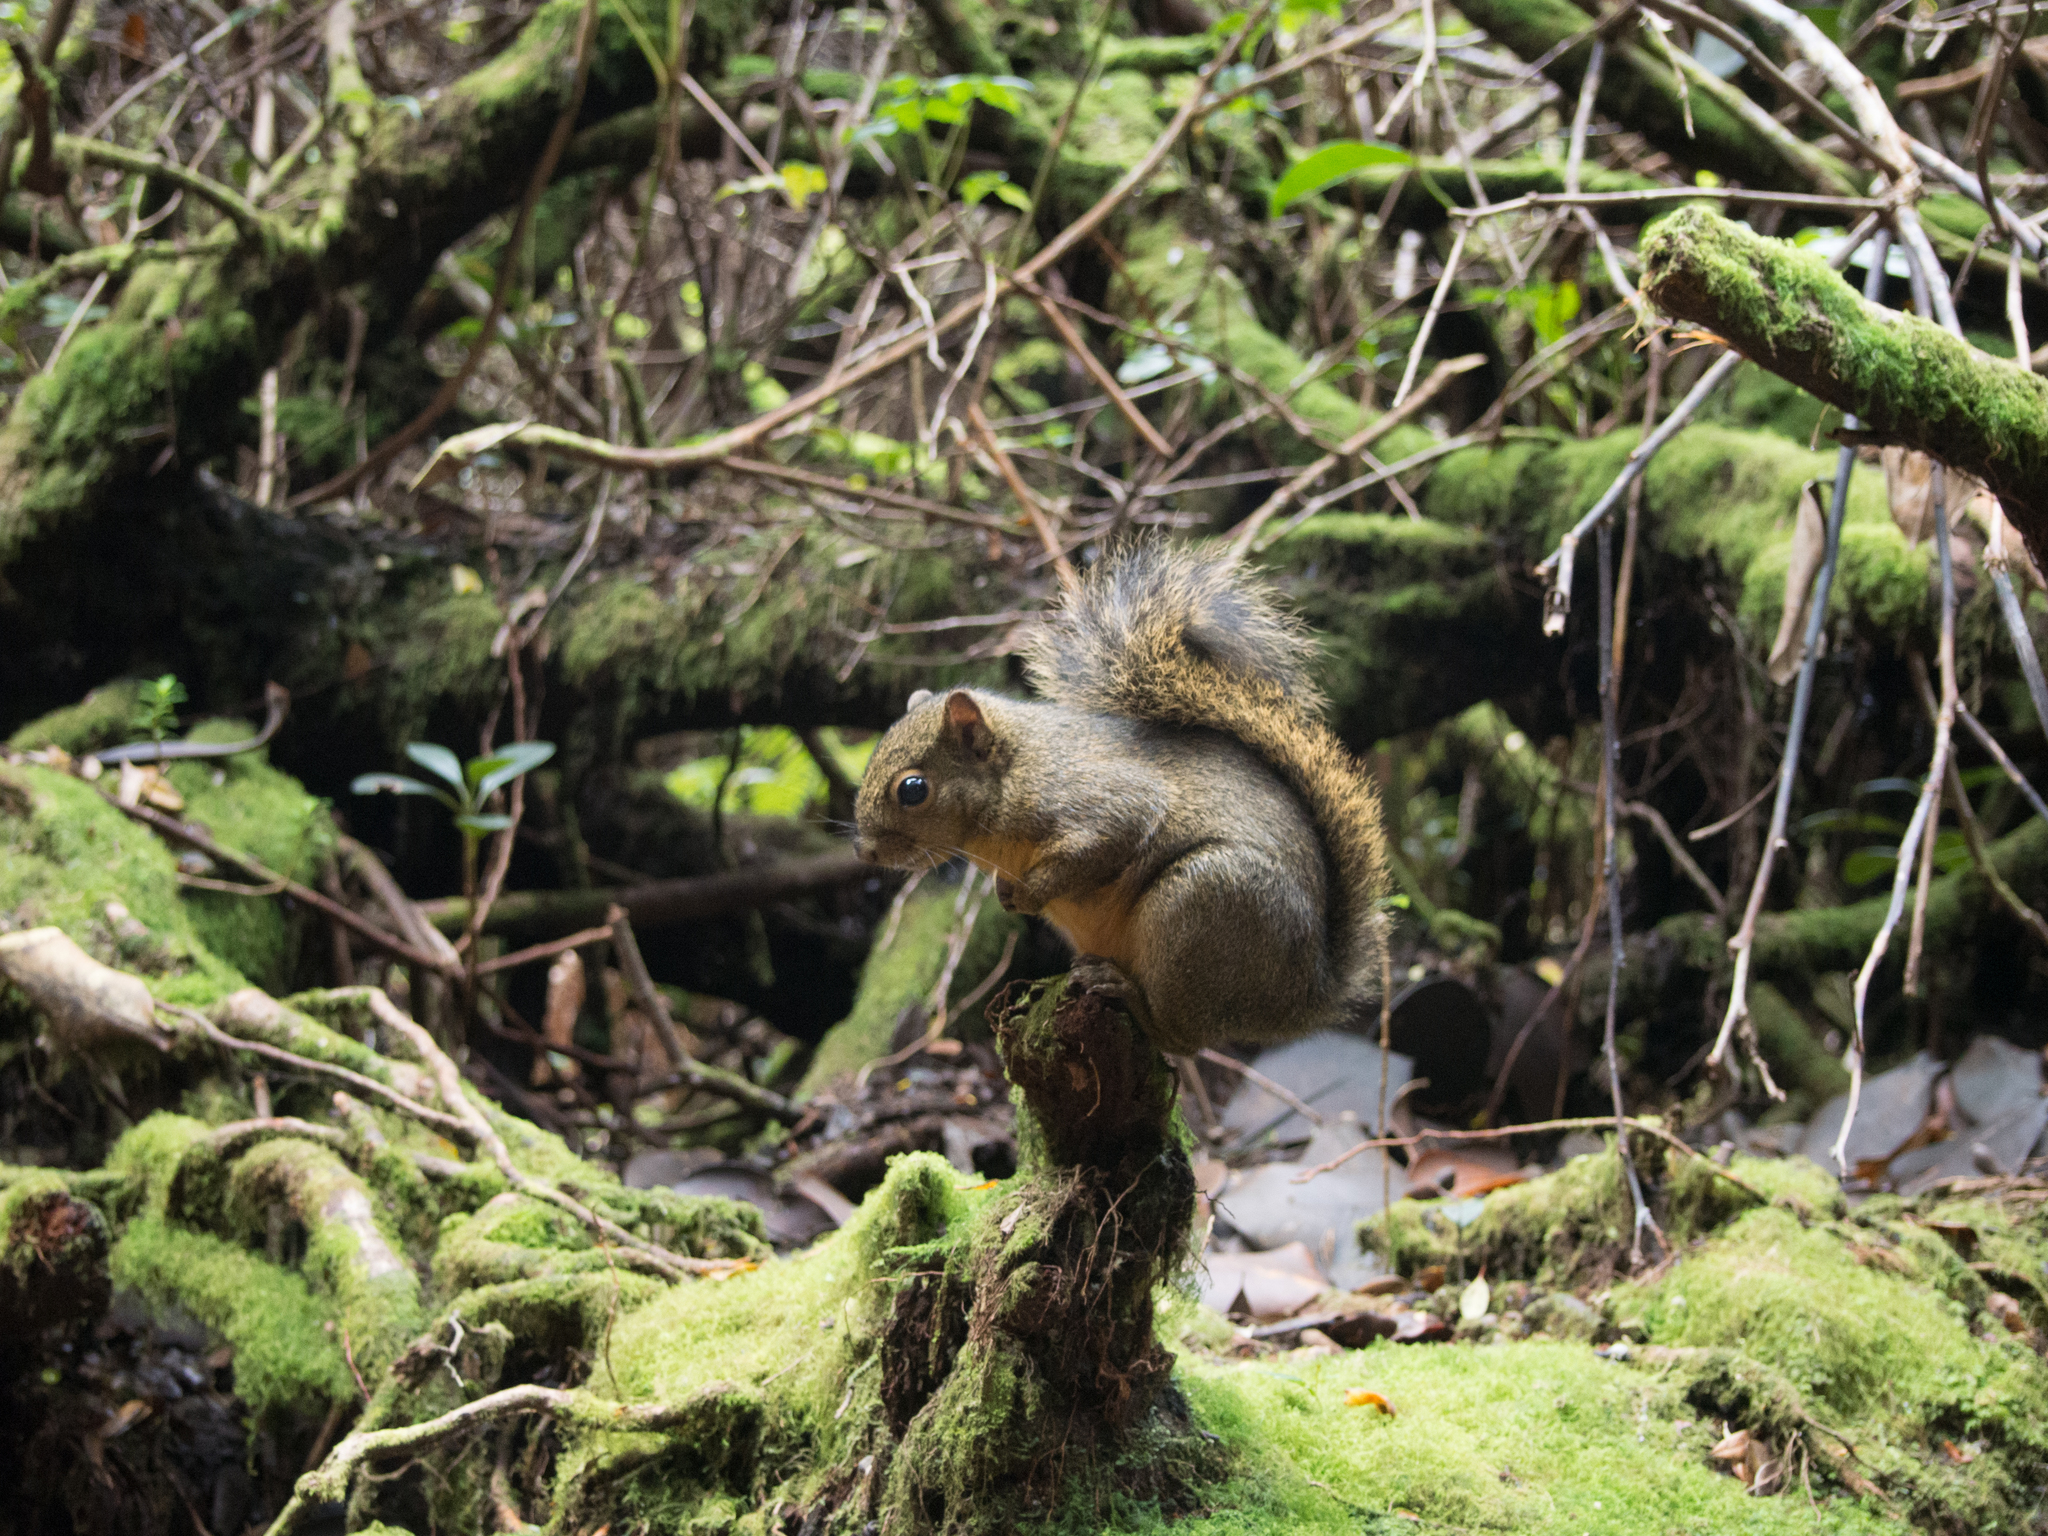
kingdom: Animalia
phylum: Chordata
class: Mammalia
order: Rodentia
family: Sciuridae
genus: Sciurus
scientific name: Sciurus granatensis
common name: Red-tailed squirrel
